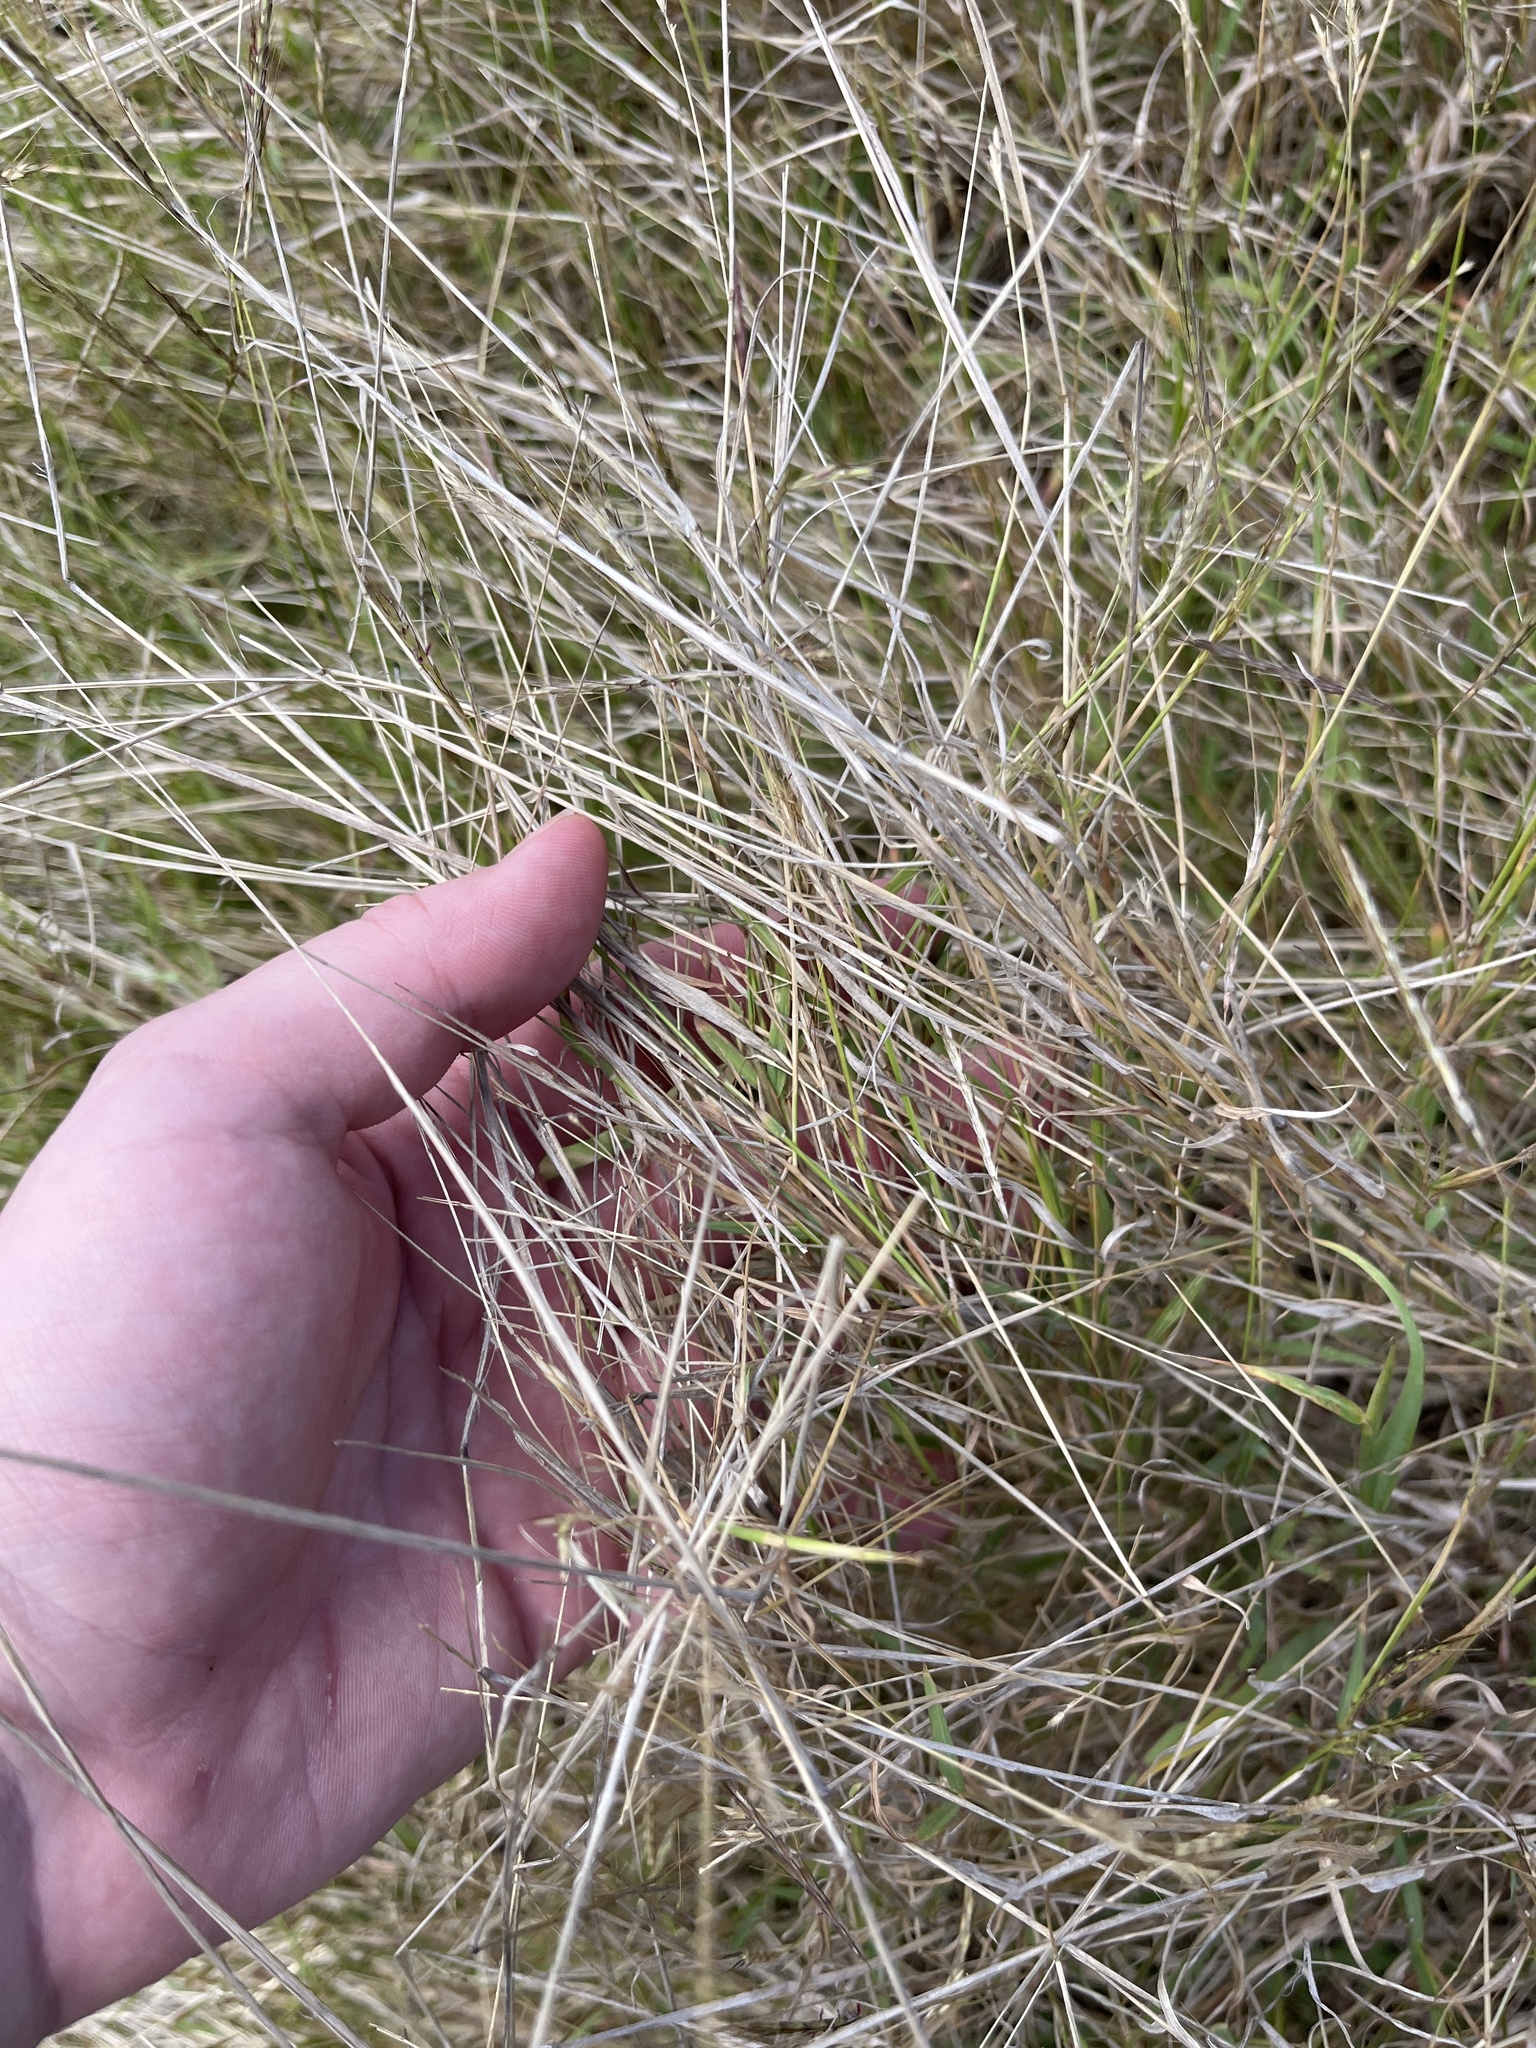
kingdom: Plantae
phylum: Tracheophyta
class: Liliopsida
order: Poales
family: Poaceae
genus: Bothriochloa
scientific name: Bothriochloa pertusa
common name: Pitted beardgrass
